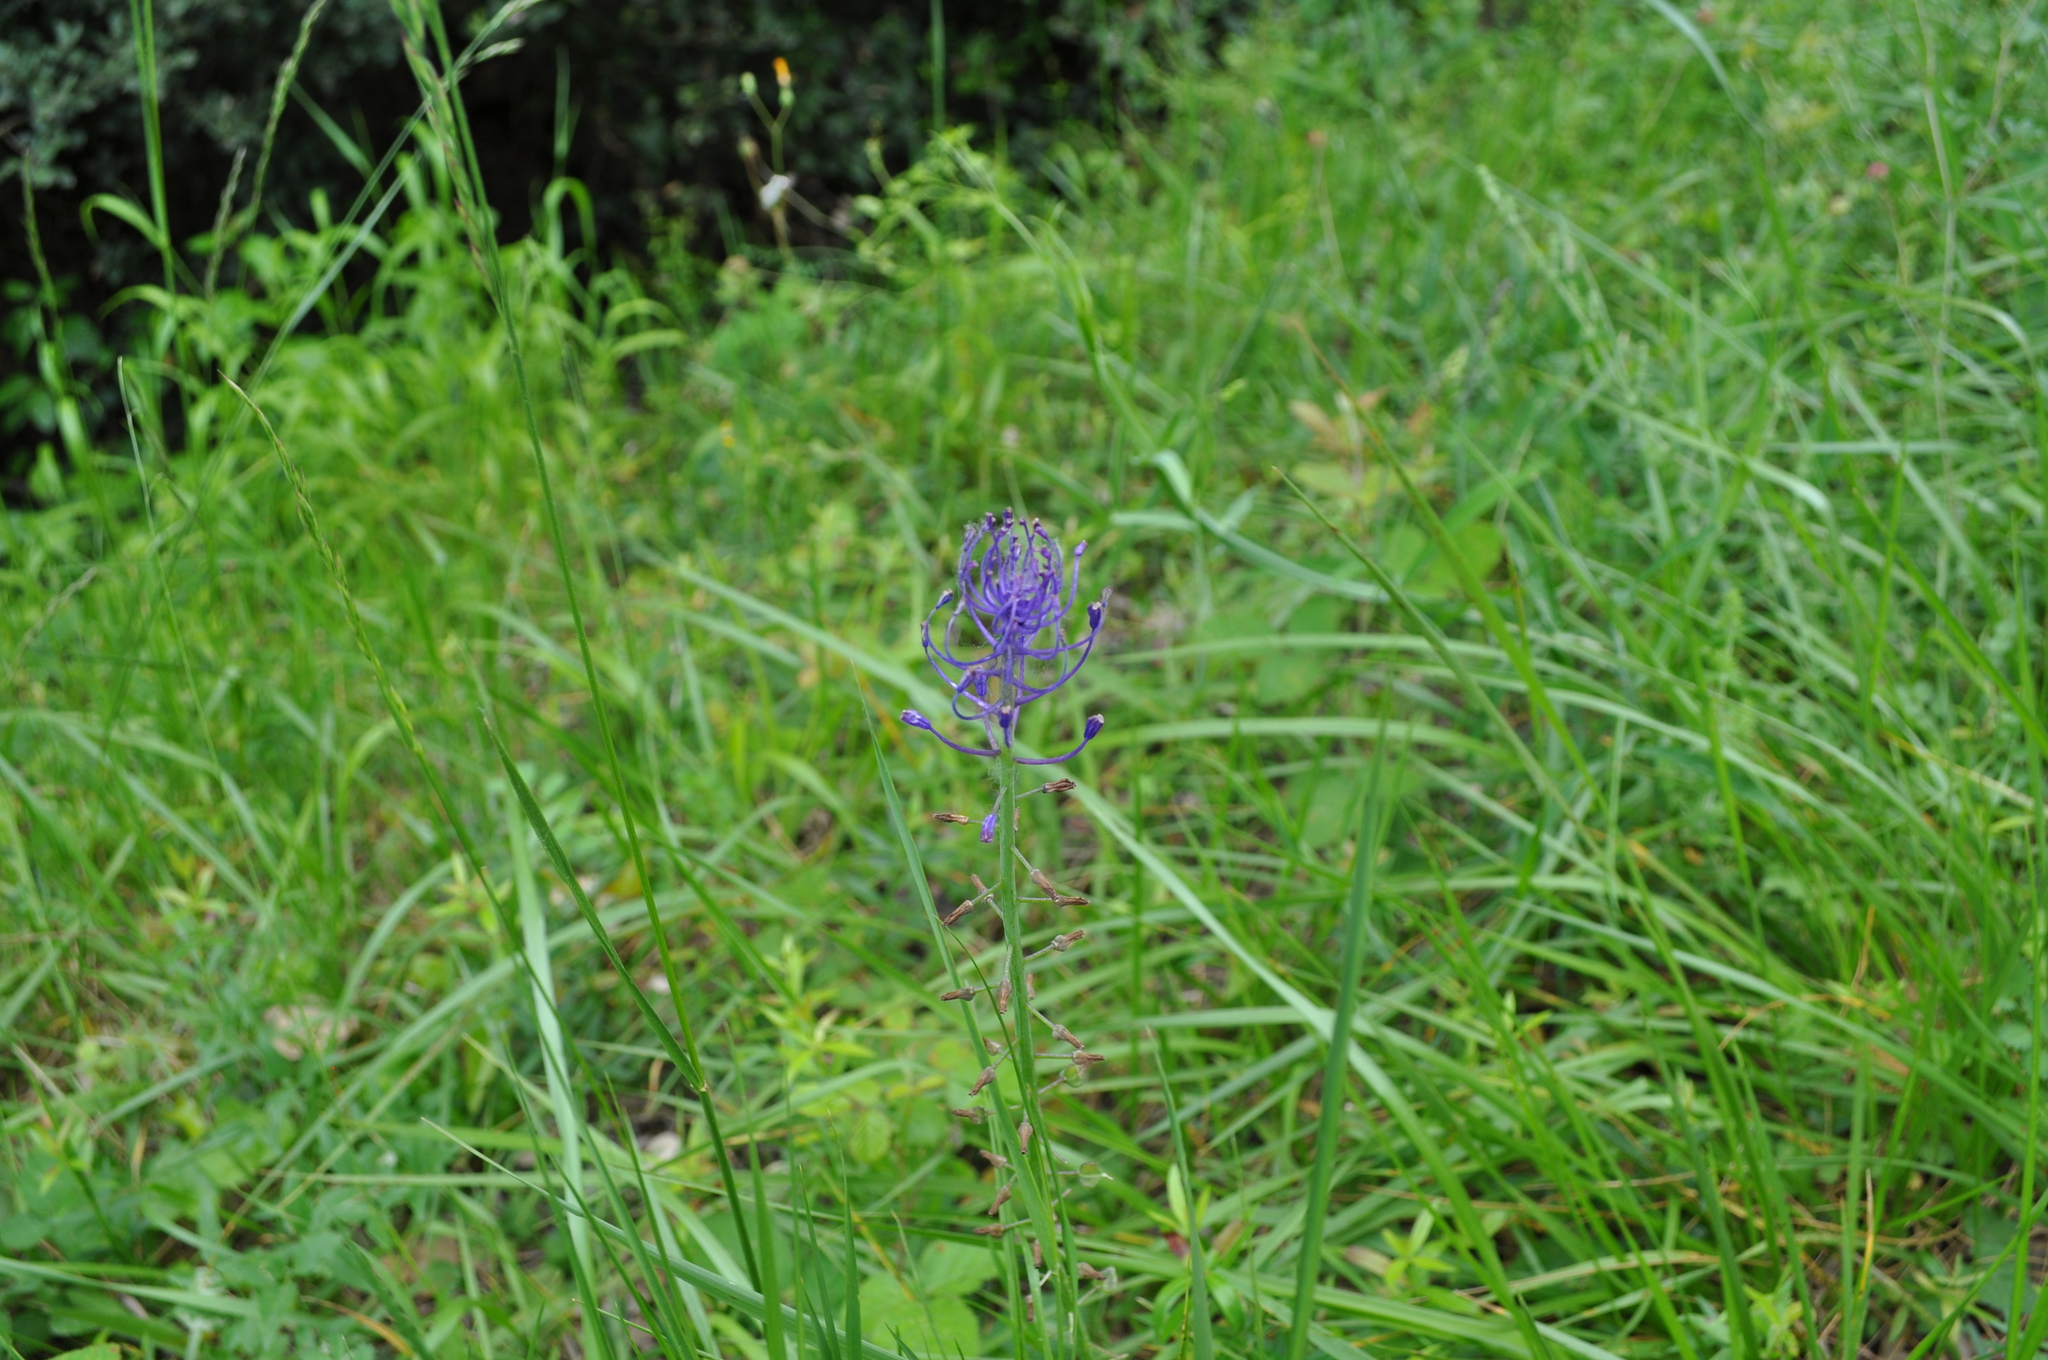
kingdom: Plantae
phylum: Tracheophyta
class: Liliopsida
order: Asparagales
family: Asparagaceae
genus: Muscari
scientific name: Muscari comosum
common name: Tassel hyacinth
